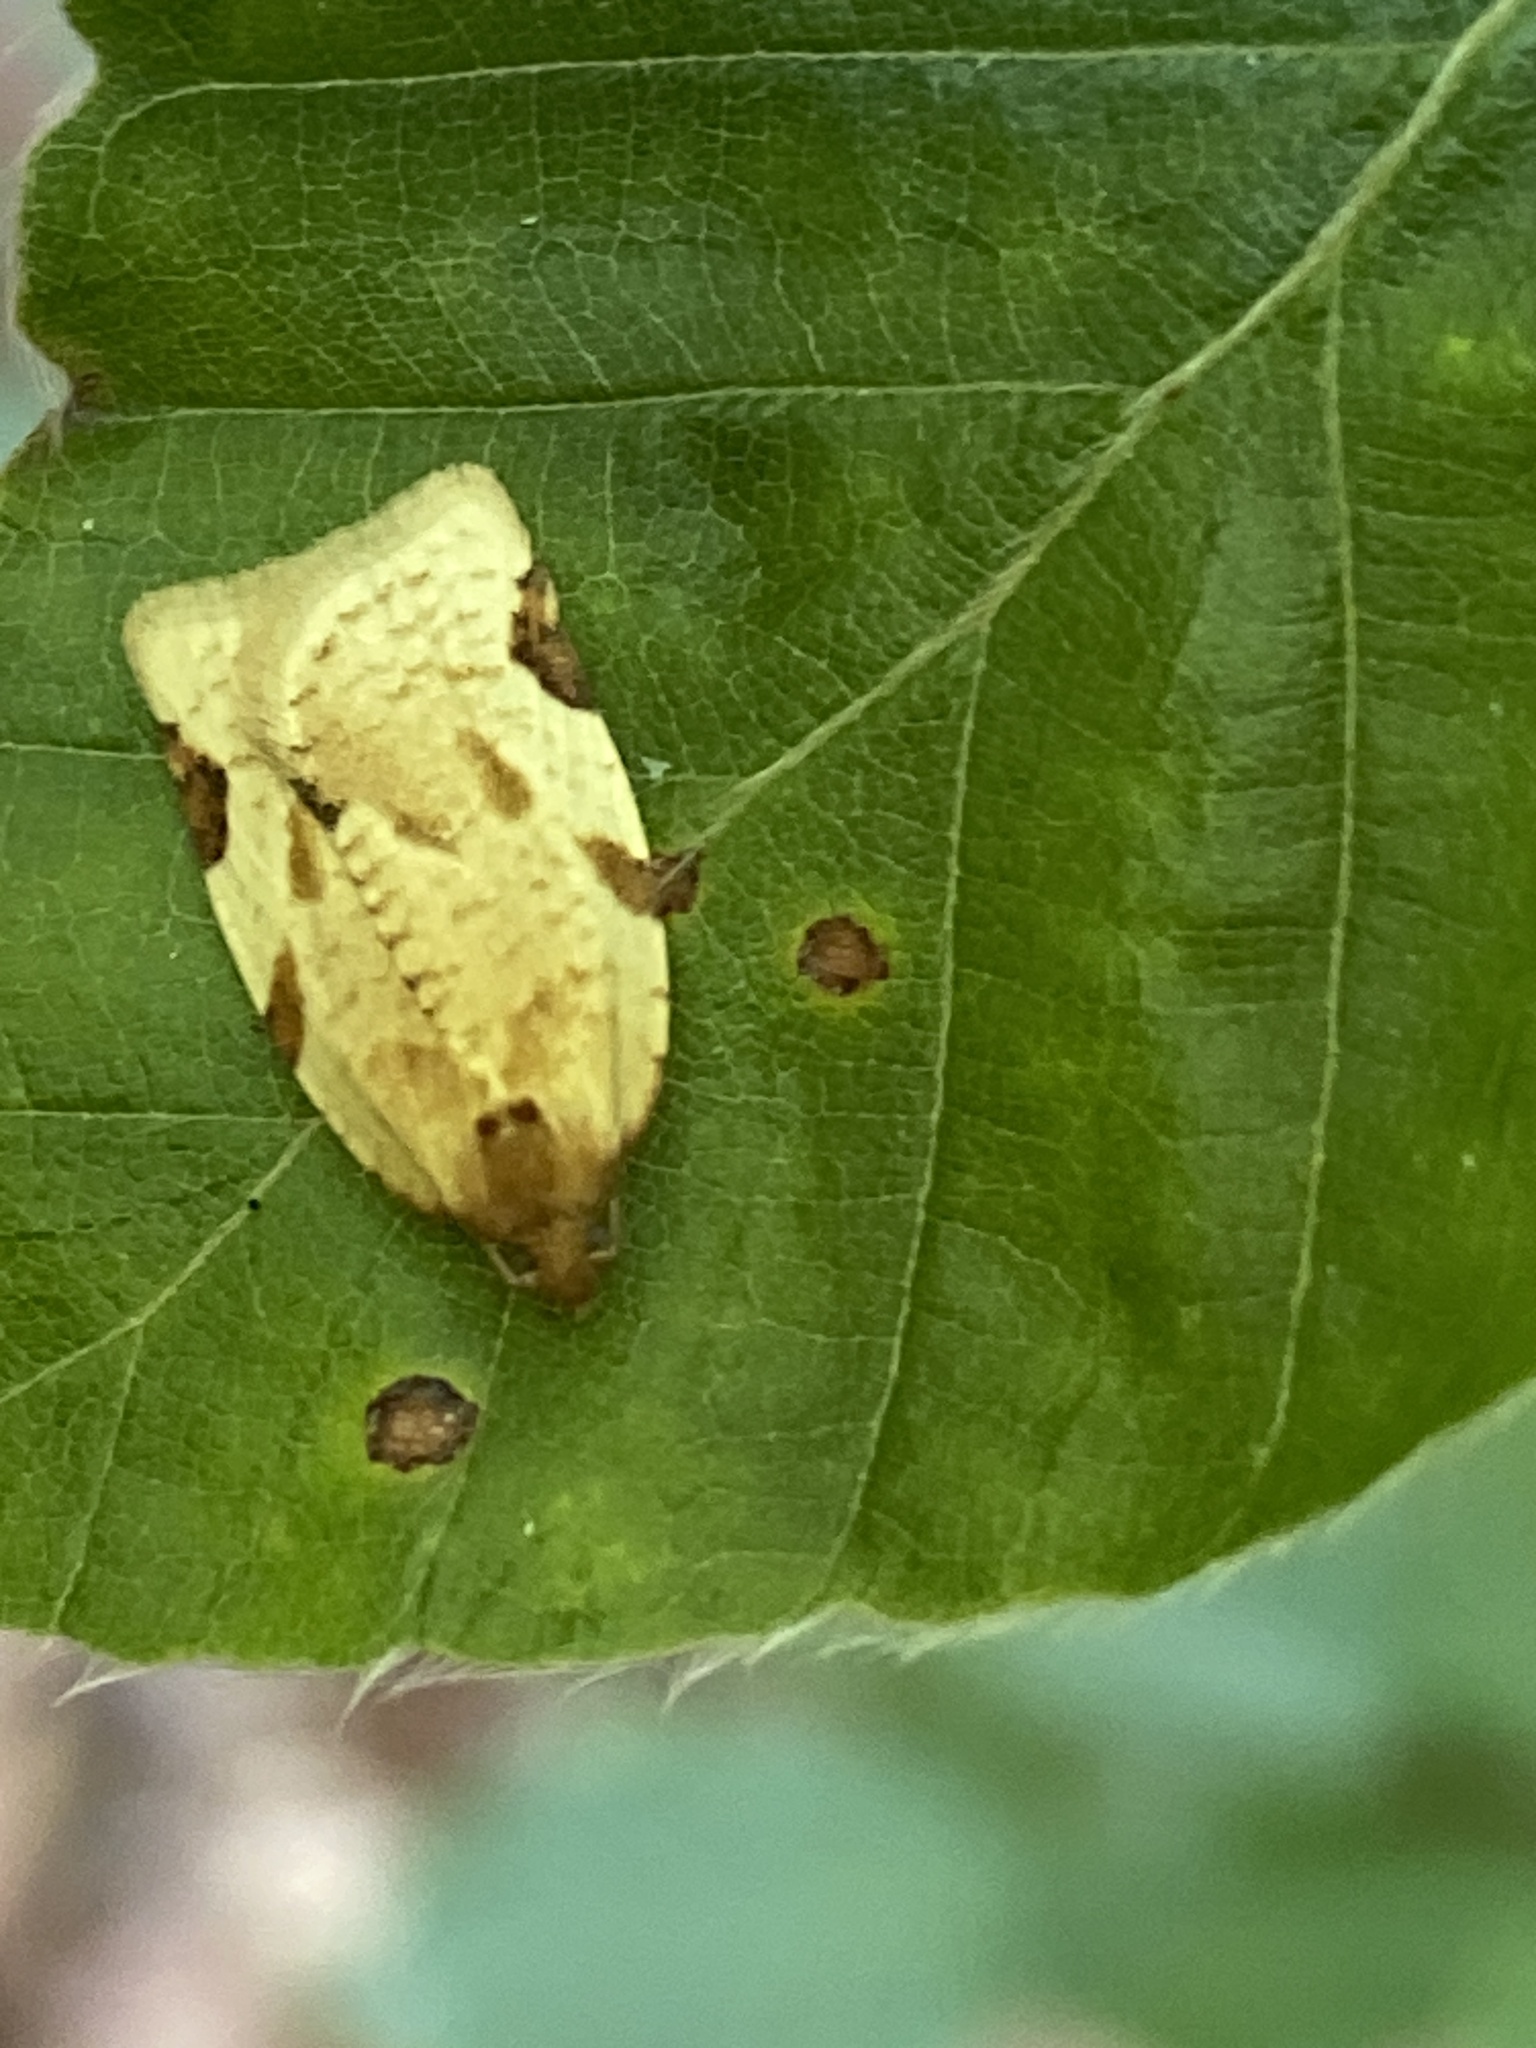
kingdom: Animalia
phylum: Arthropoda
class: Insecta
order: Lepidoptera
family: Tortricidae
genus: Paramesia
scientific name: Paramesia gnomana
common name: Small straw twist
